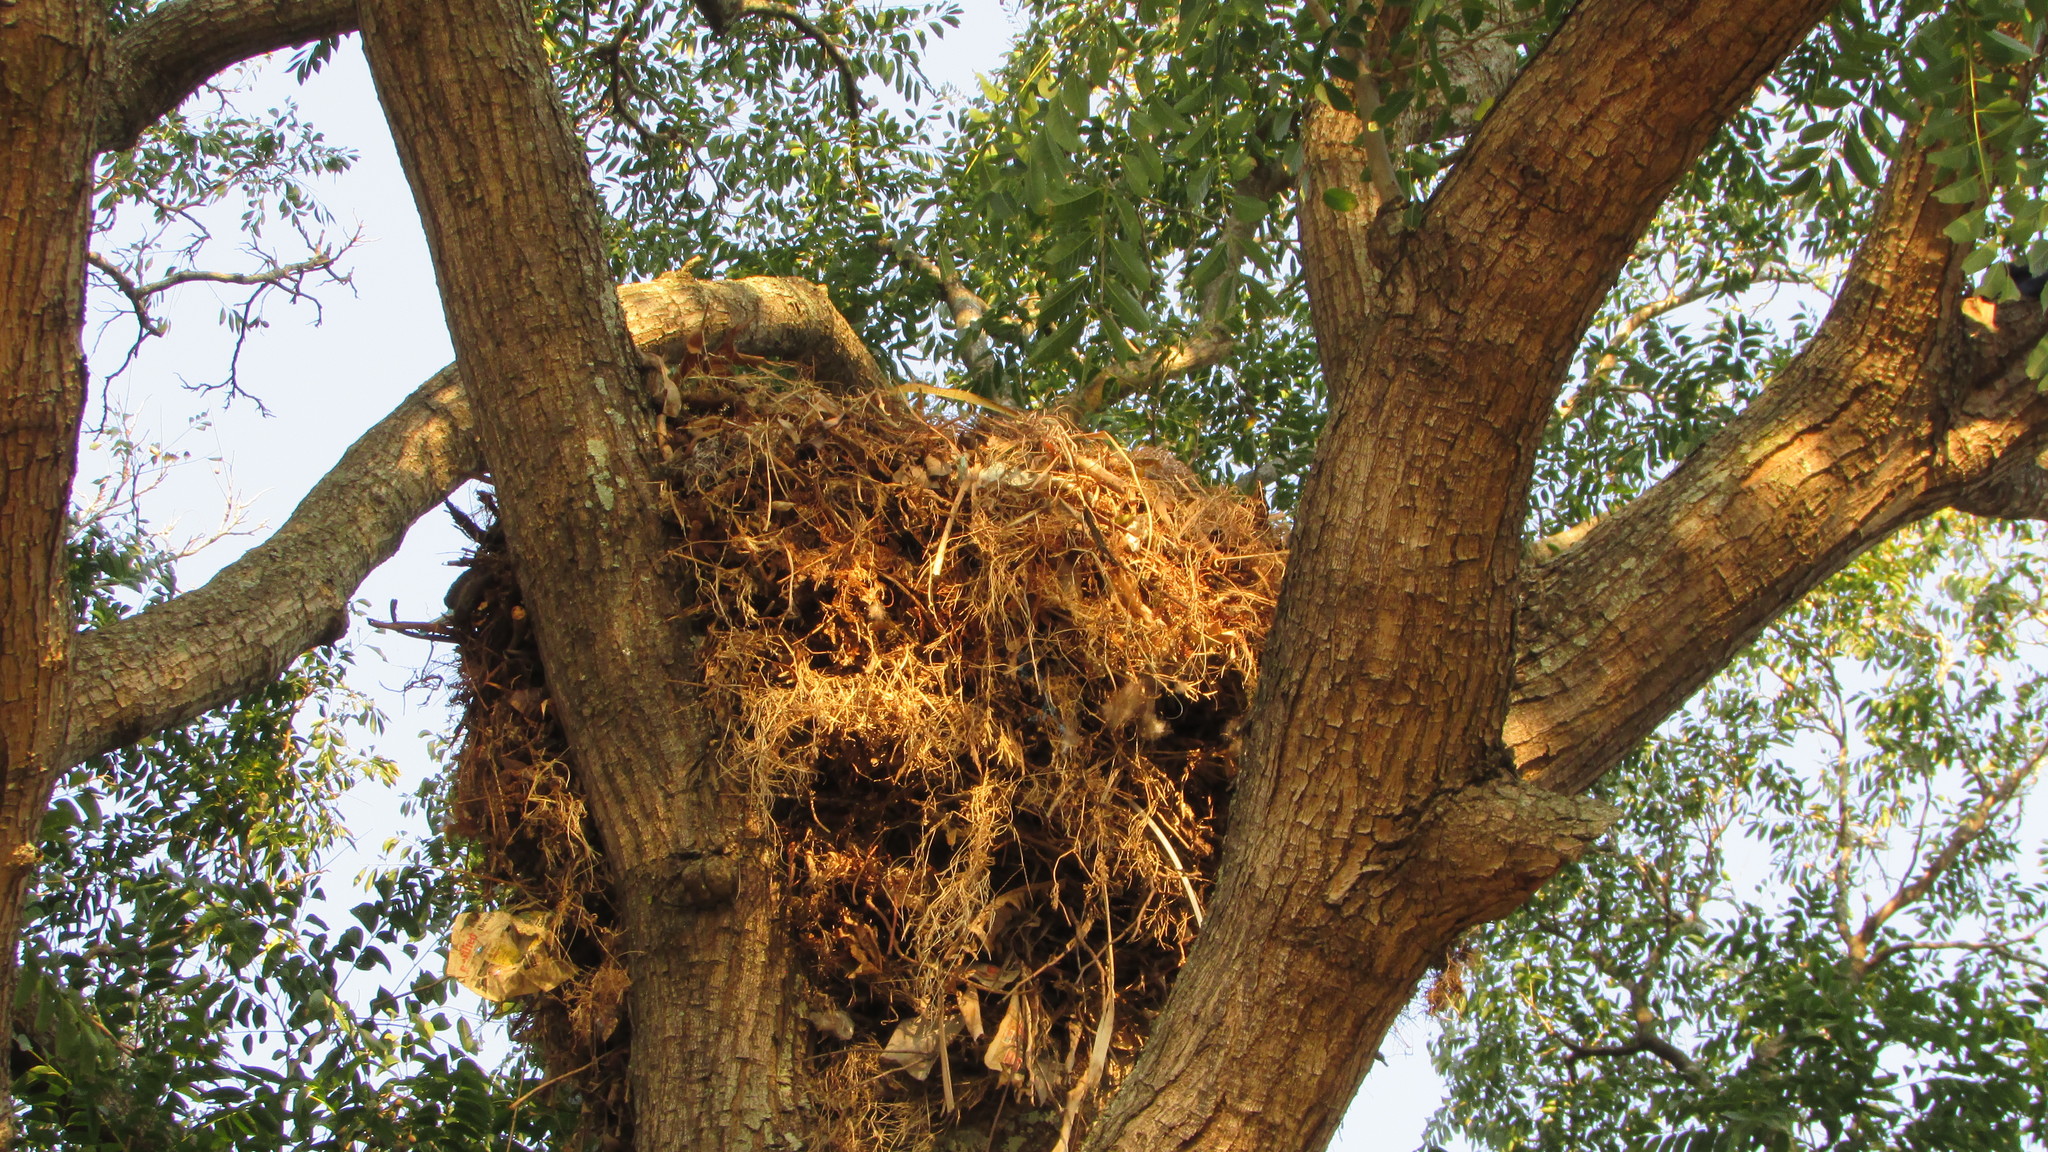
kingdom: Animalia
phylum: Chordata
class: Aves
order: Pelecaniformes
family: Scopidae
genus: Scopus
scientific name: Scopus umbretta
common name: Hamerkop
